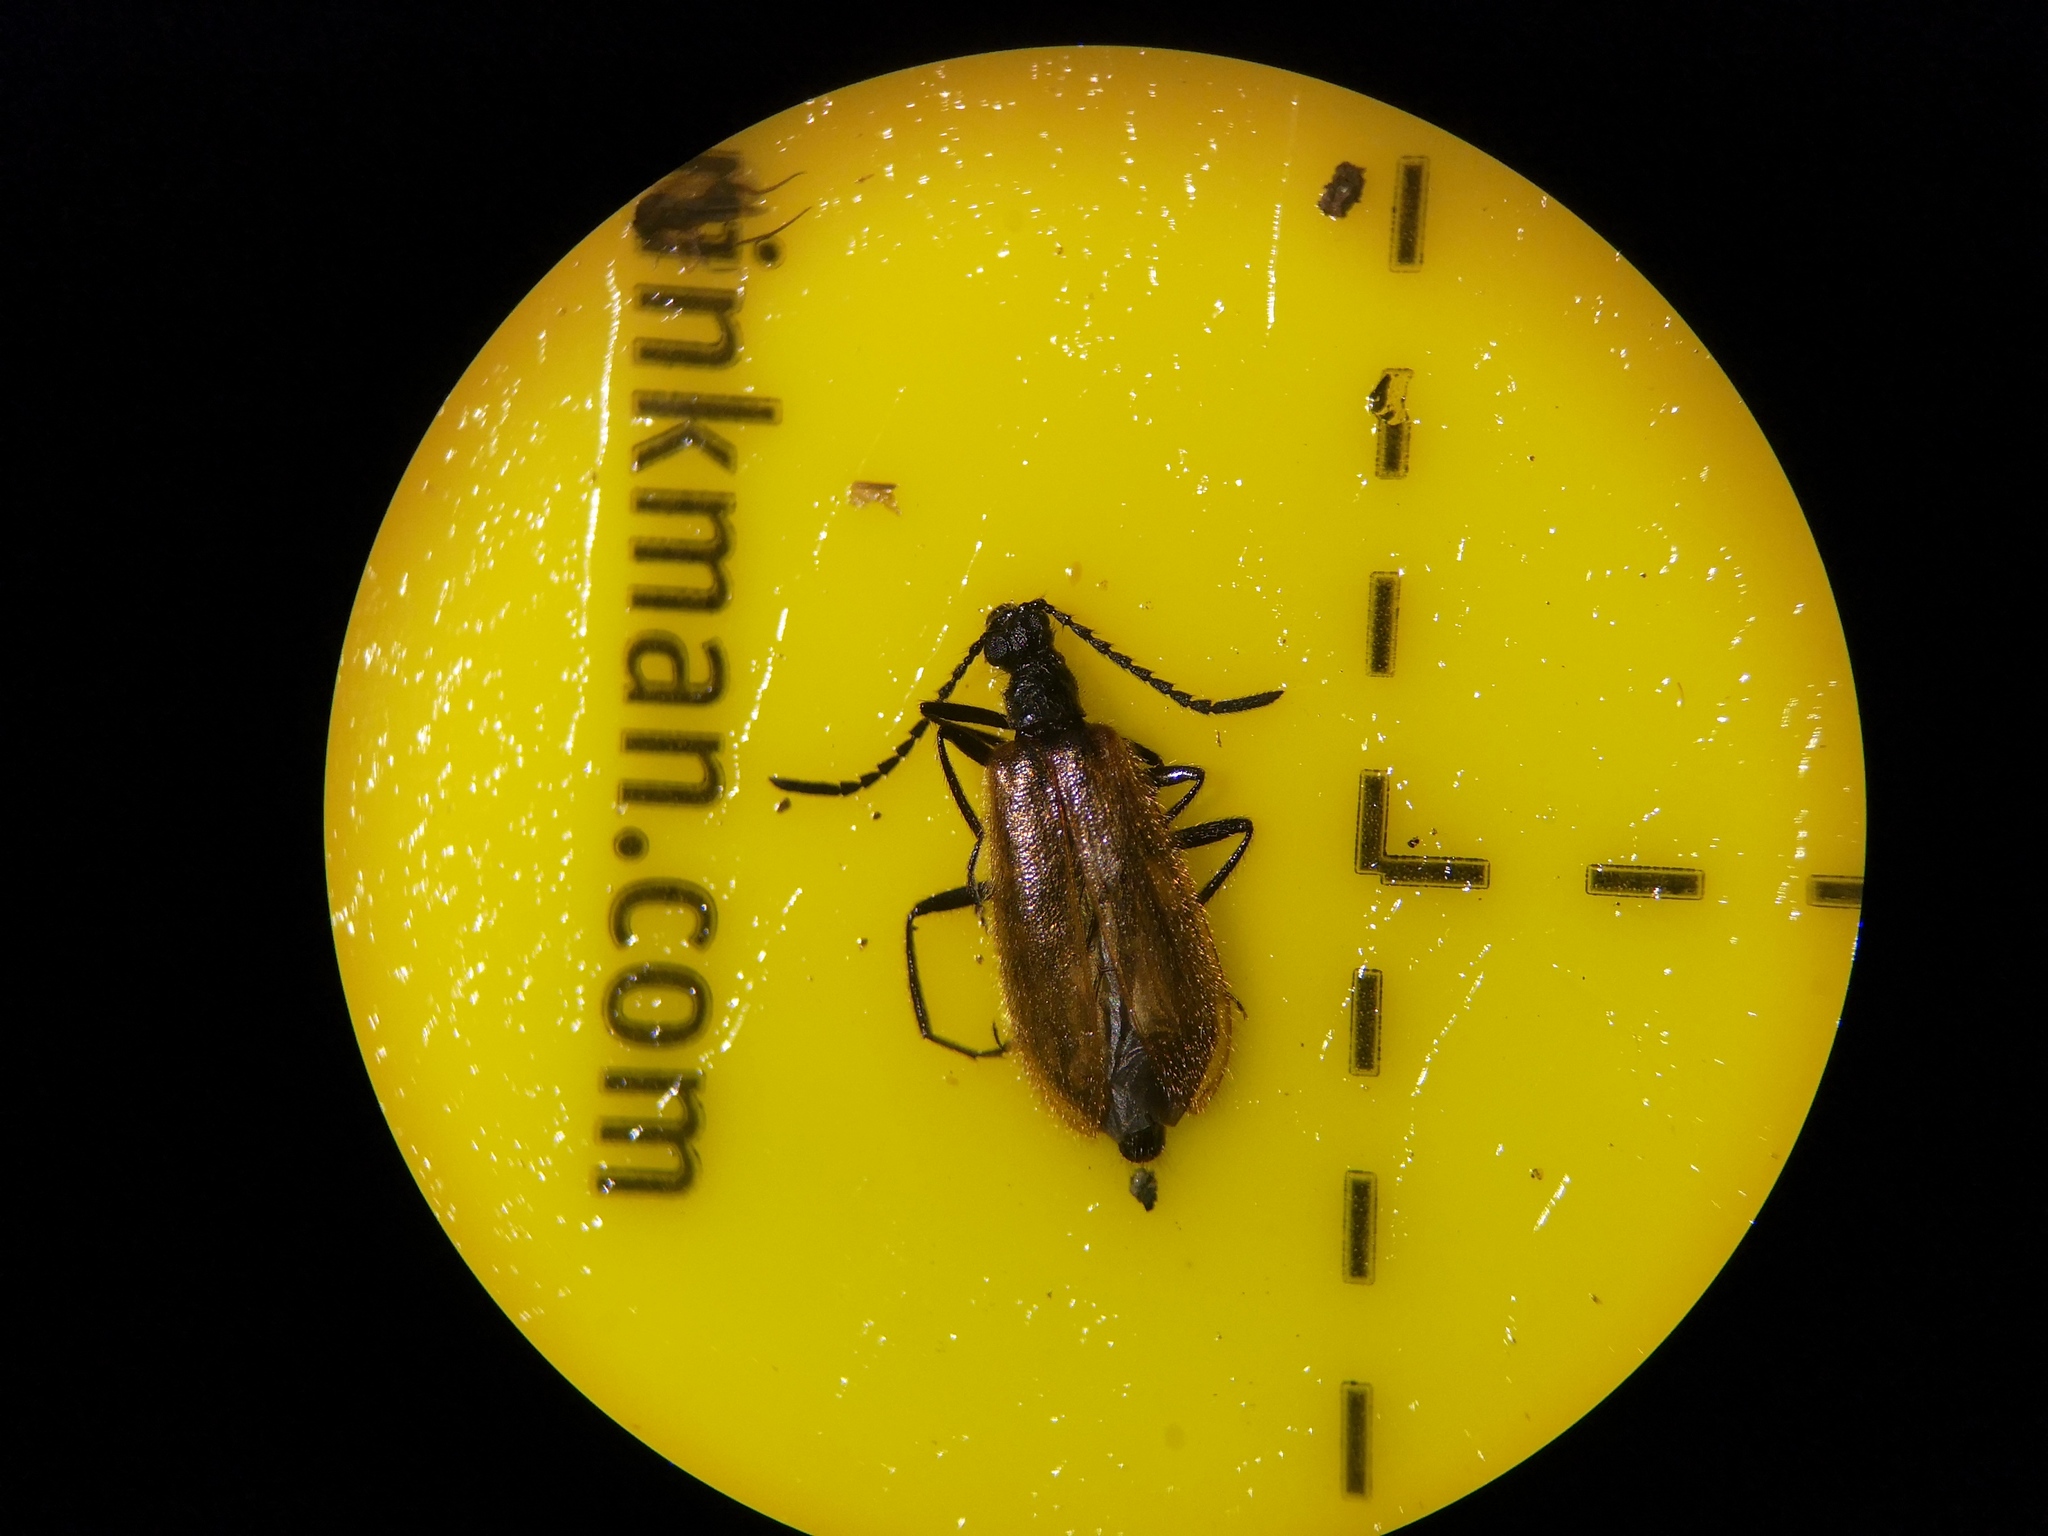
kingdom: Animalia
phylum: Arthropoda
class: Insecta
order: Coleoptera
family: Tenebrionidae
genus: Lagria
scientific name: Lagria hirta
